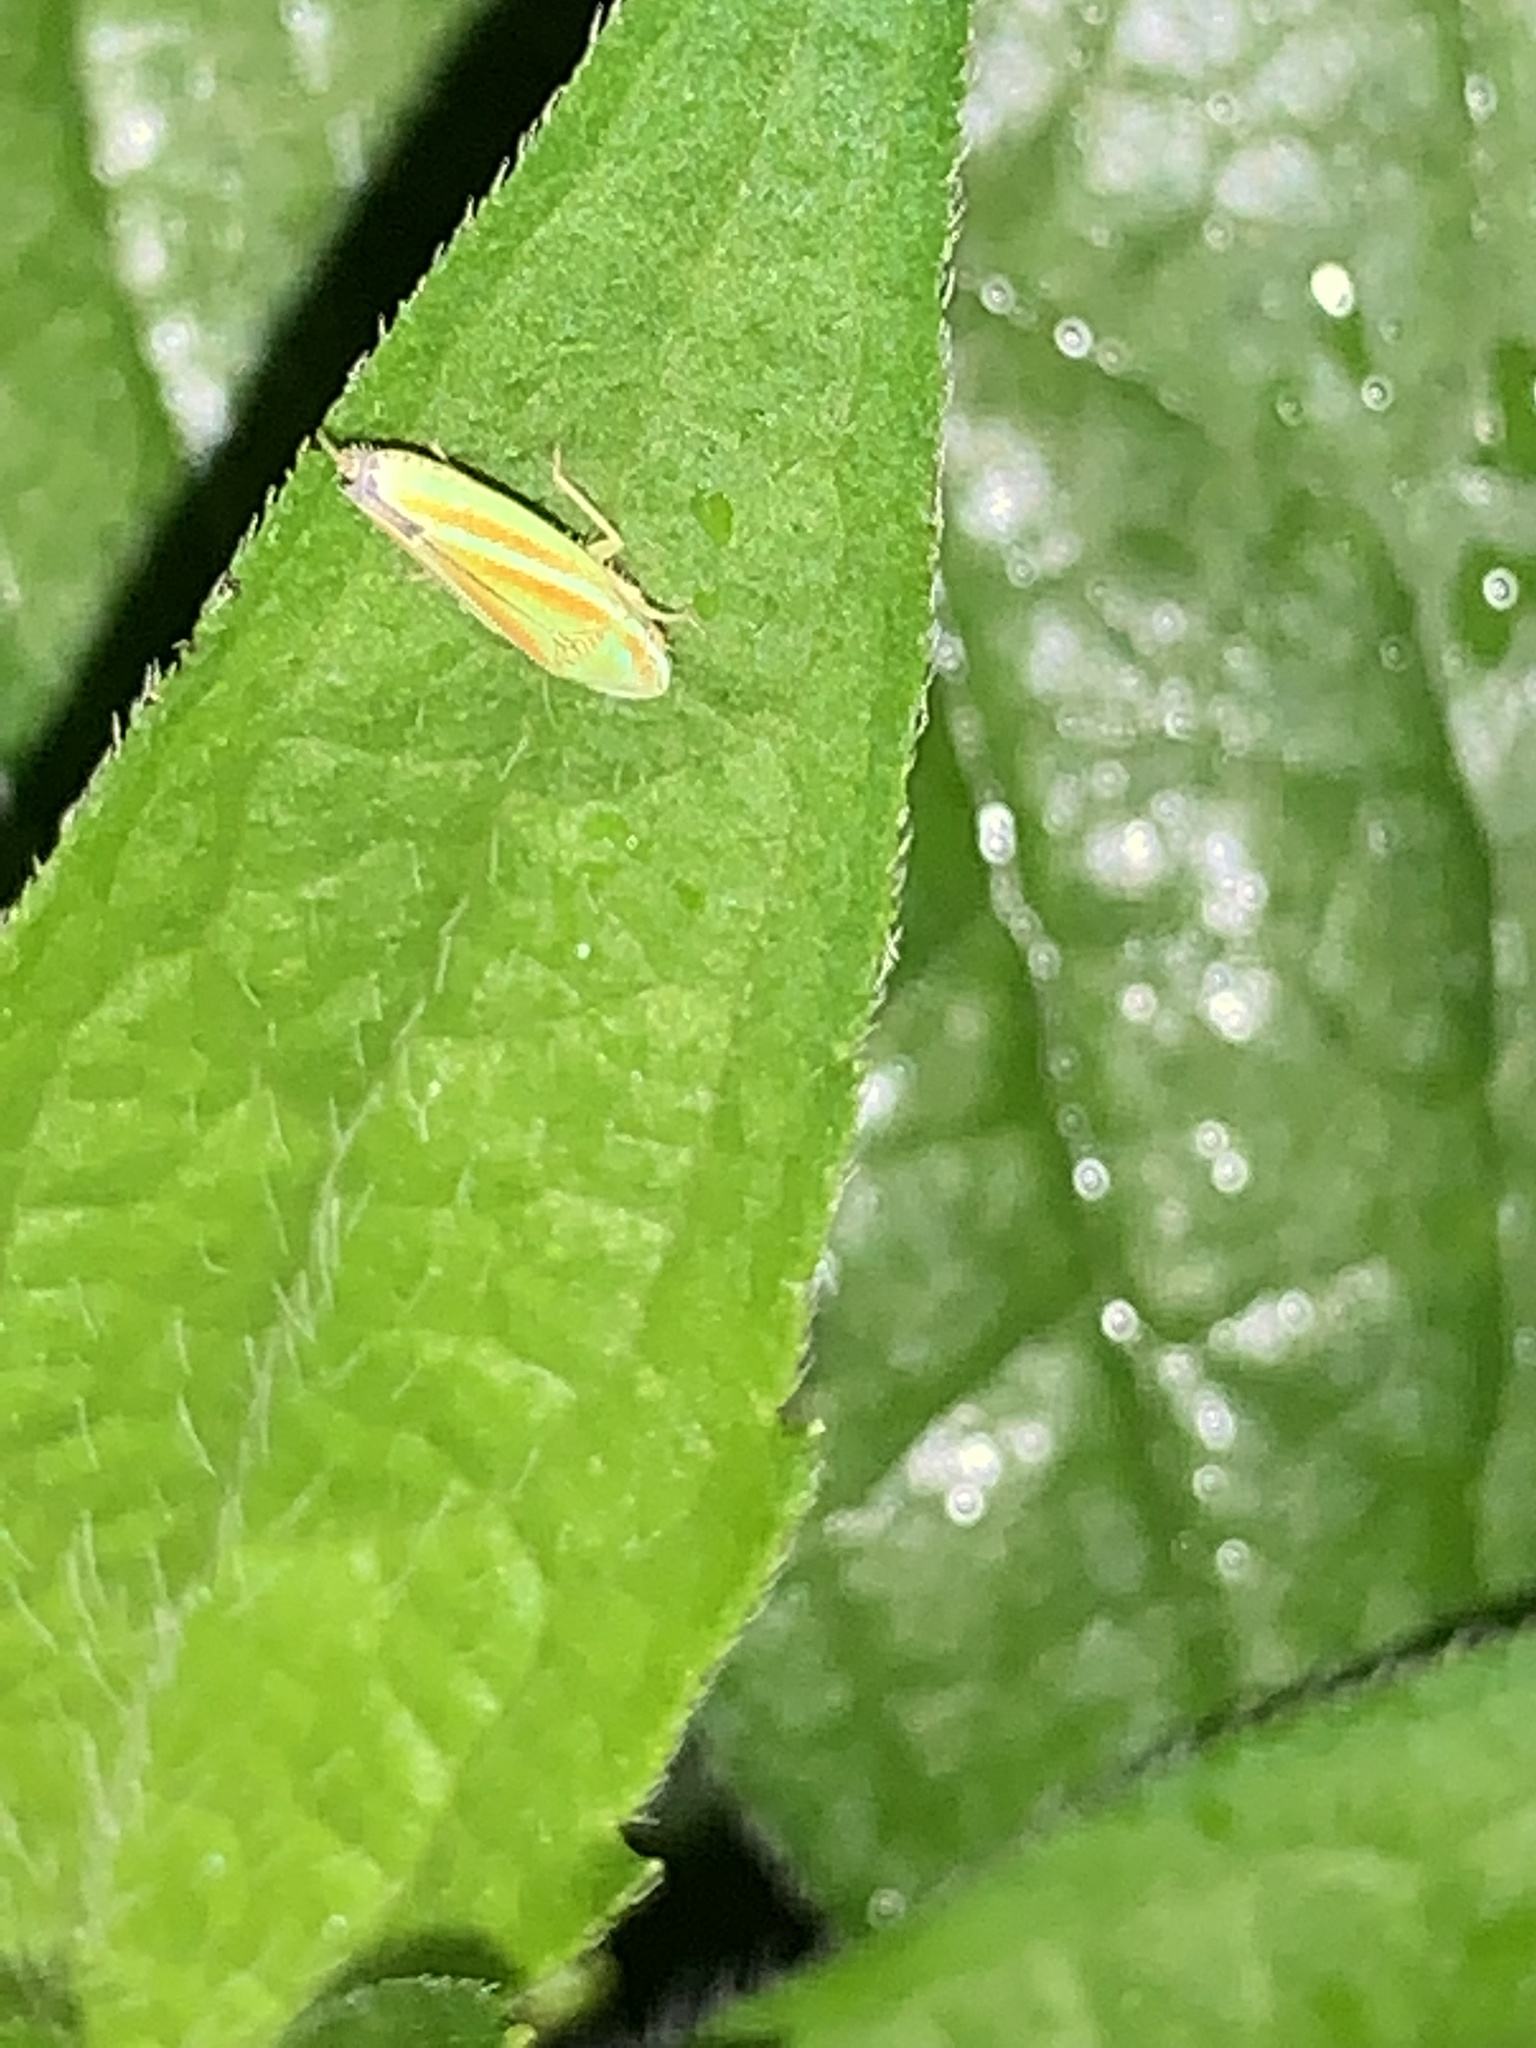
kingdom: Animalia
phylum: Arthropoda
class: Insecta
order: Hemiptera
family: Cicadellidae
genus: Graphocephala
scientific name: Graphocephala versuta
